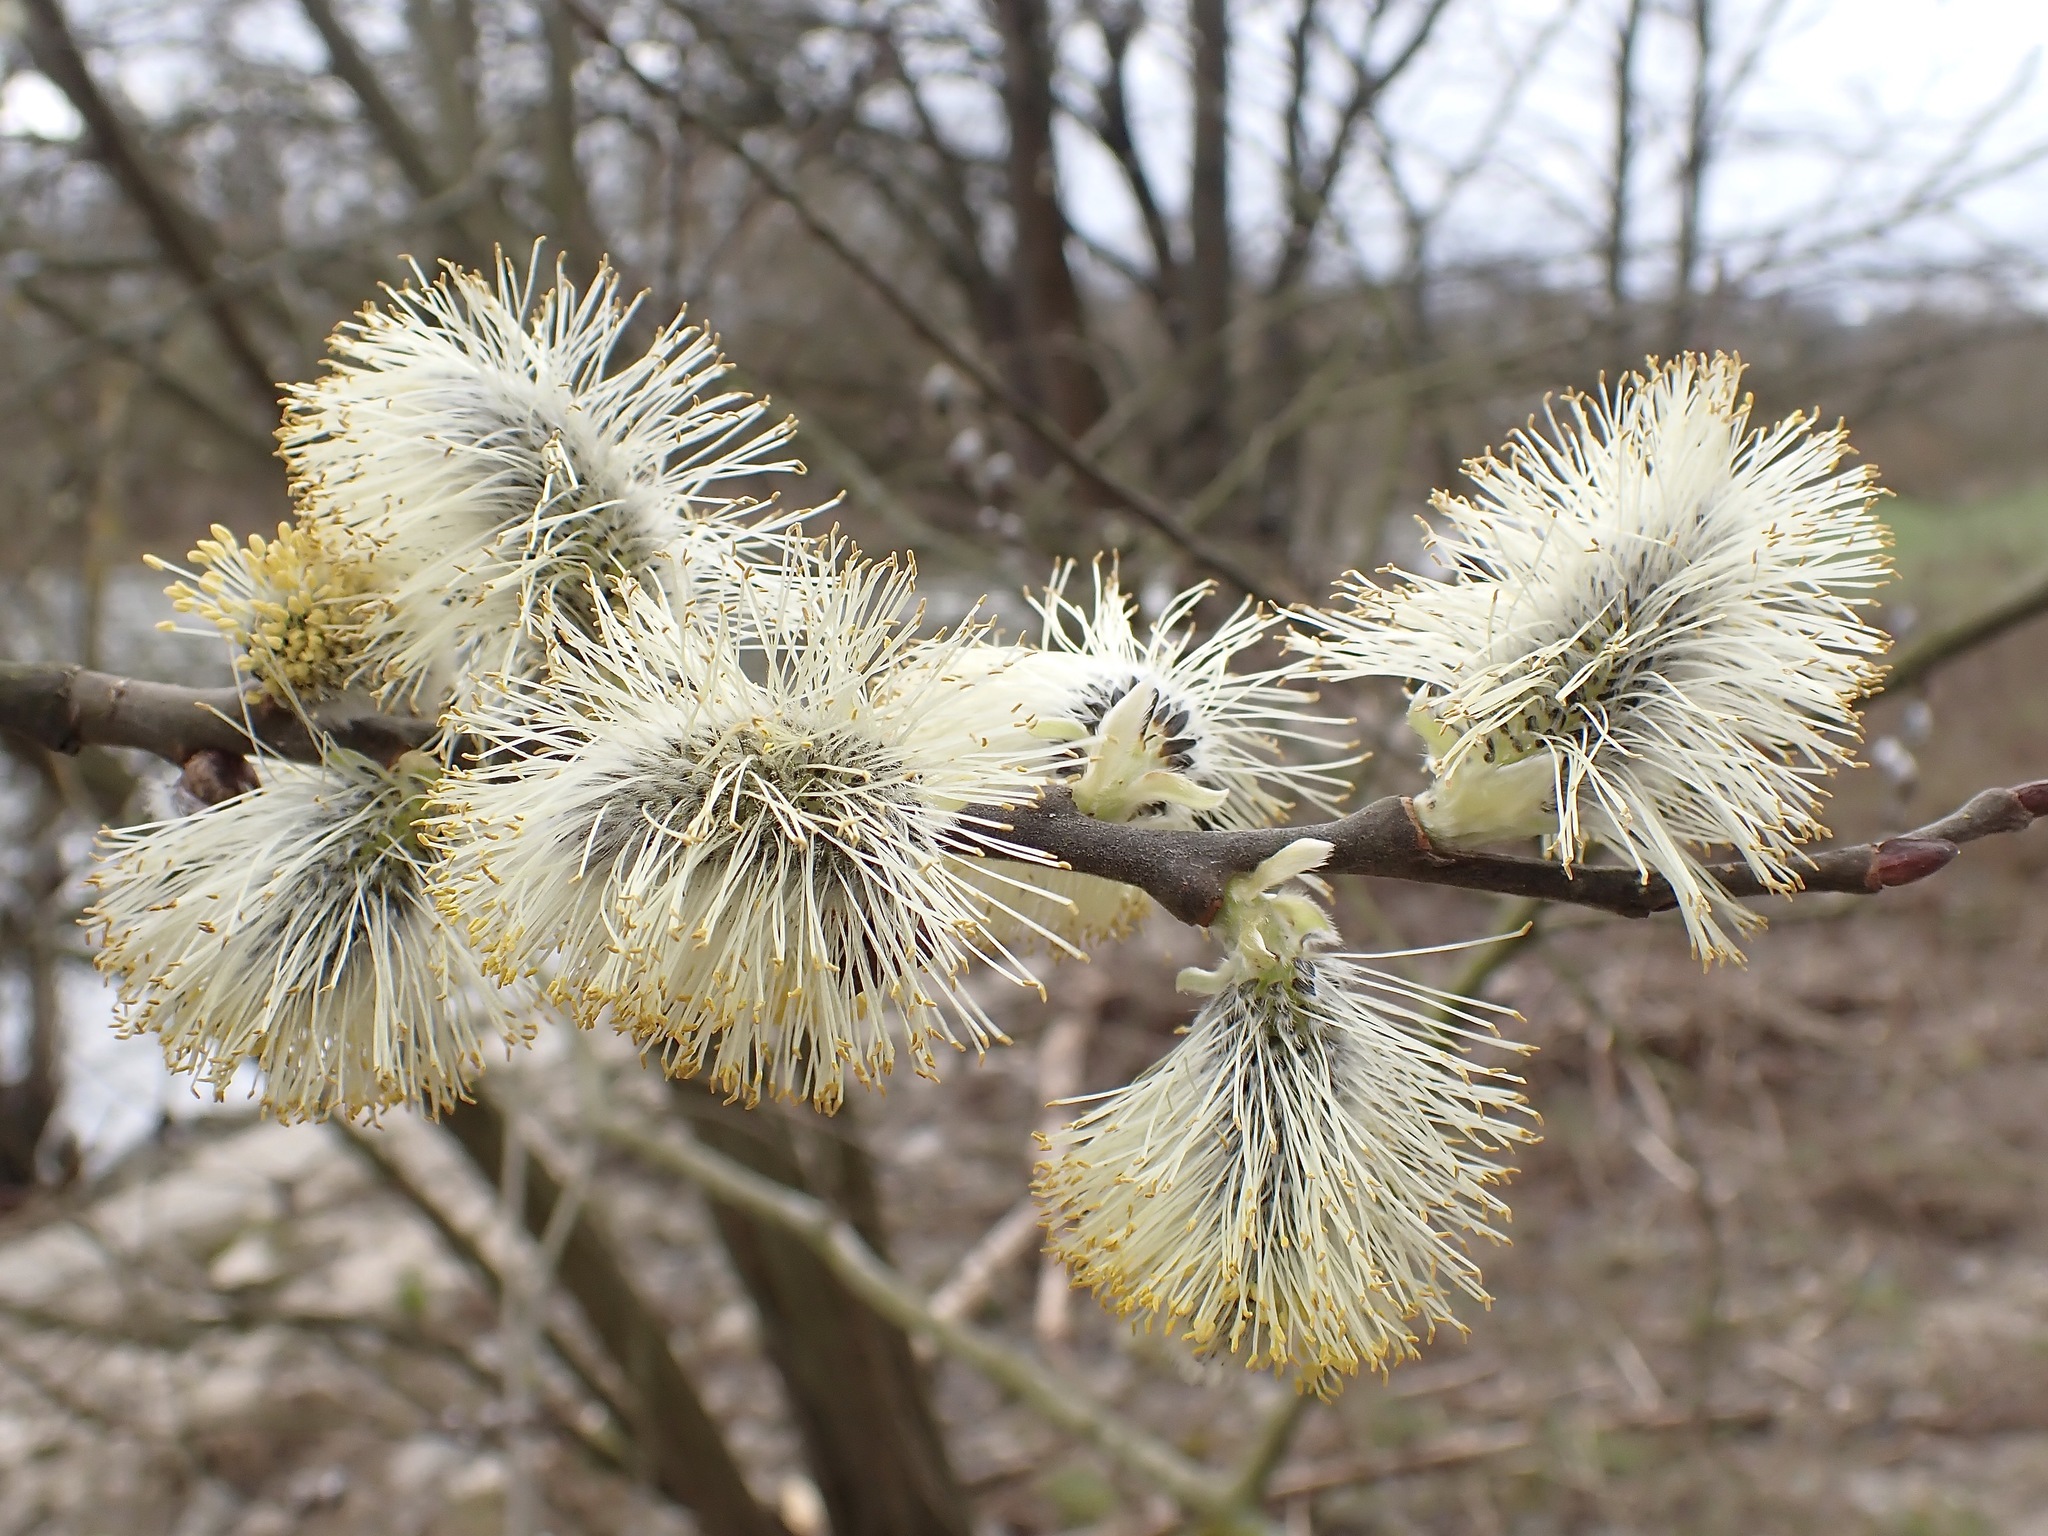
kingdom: Plantae
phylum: Tracheophyta
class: Magnoliopsida
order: Malpighiales
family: Salicaceae
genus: Salix
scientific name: Salix caprea
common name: Goat willow
